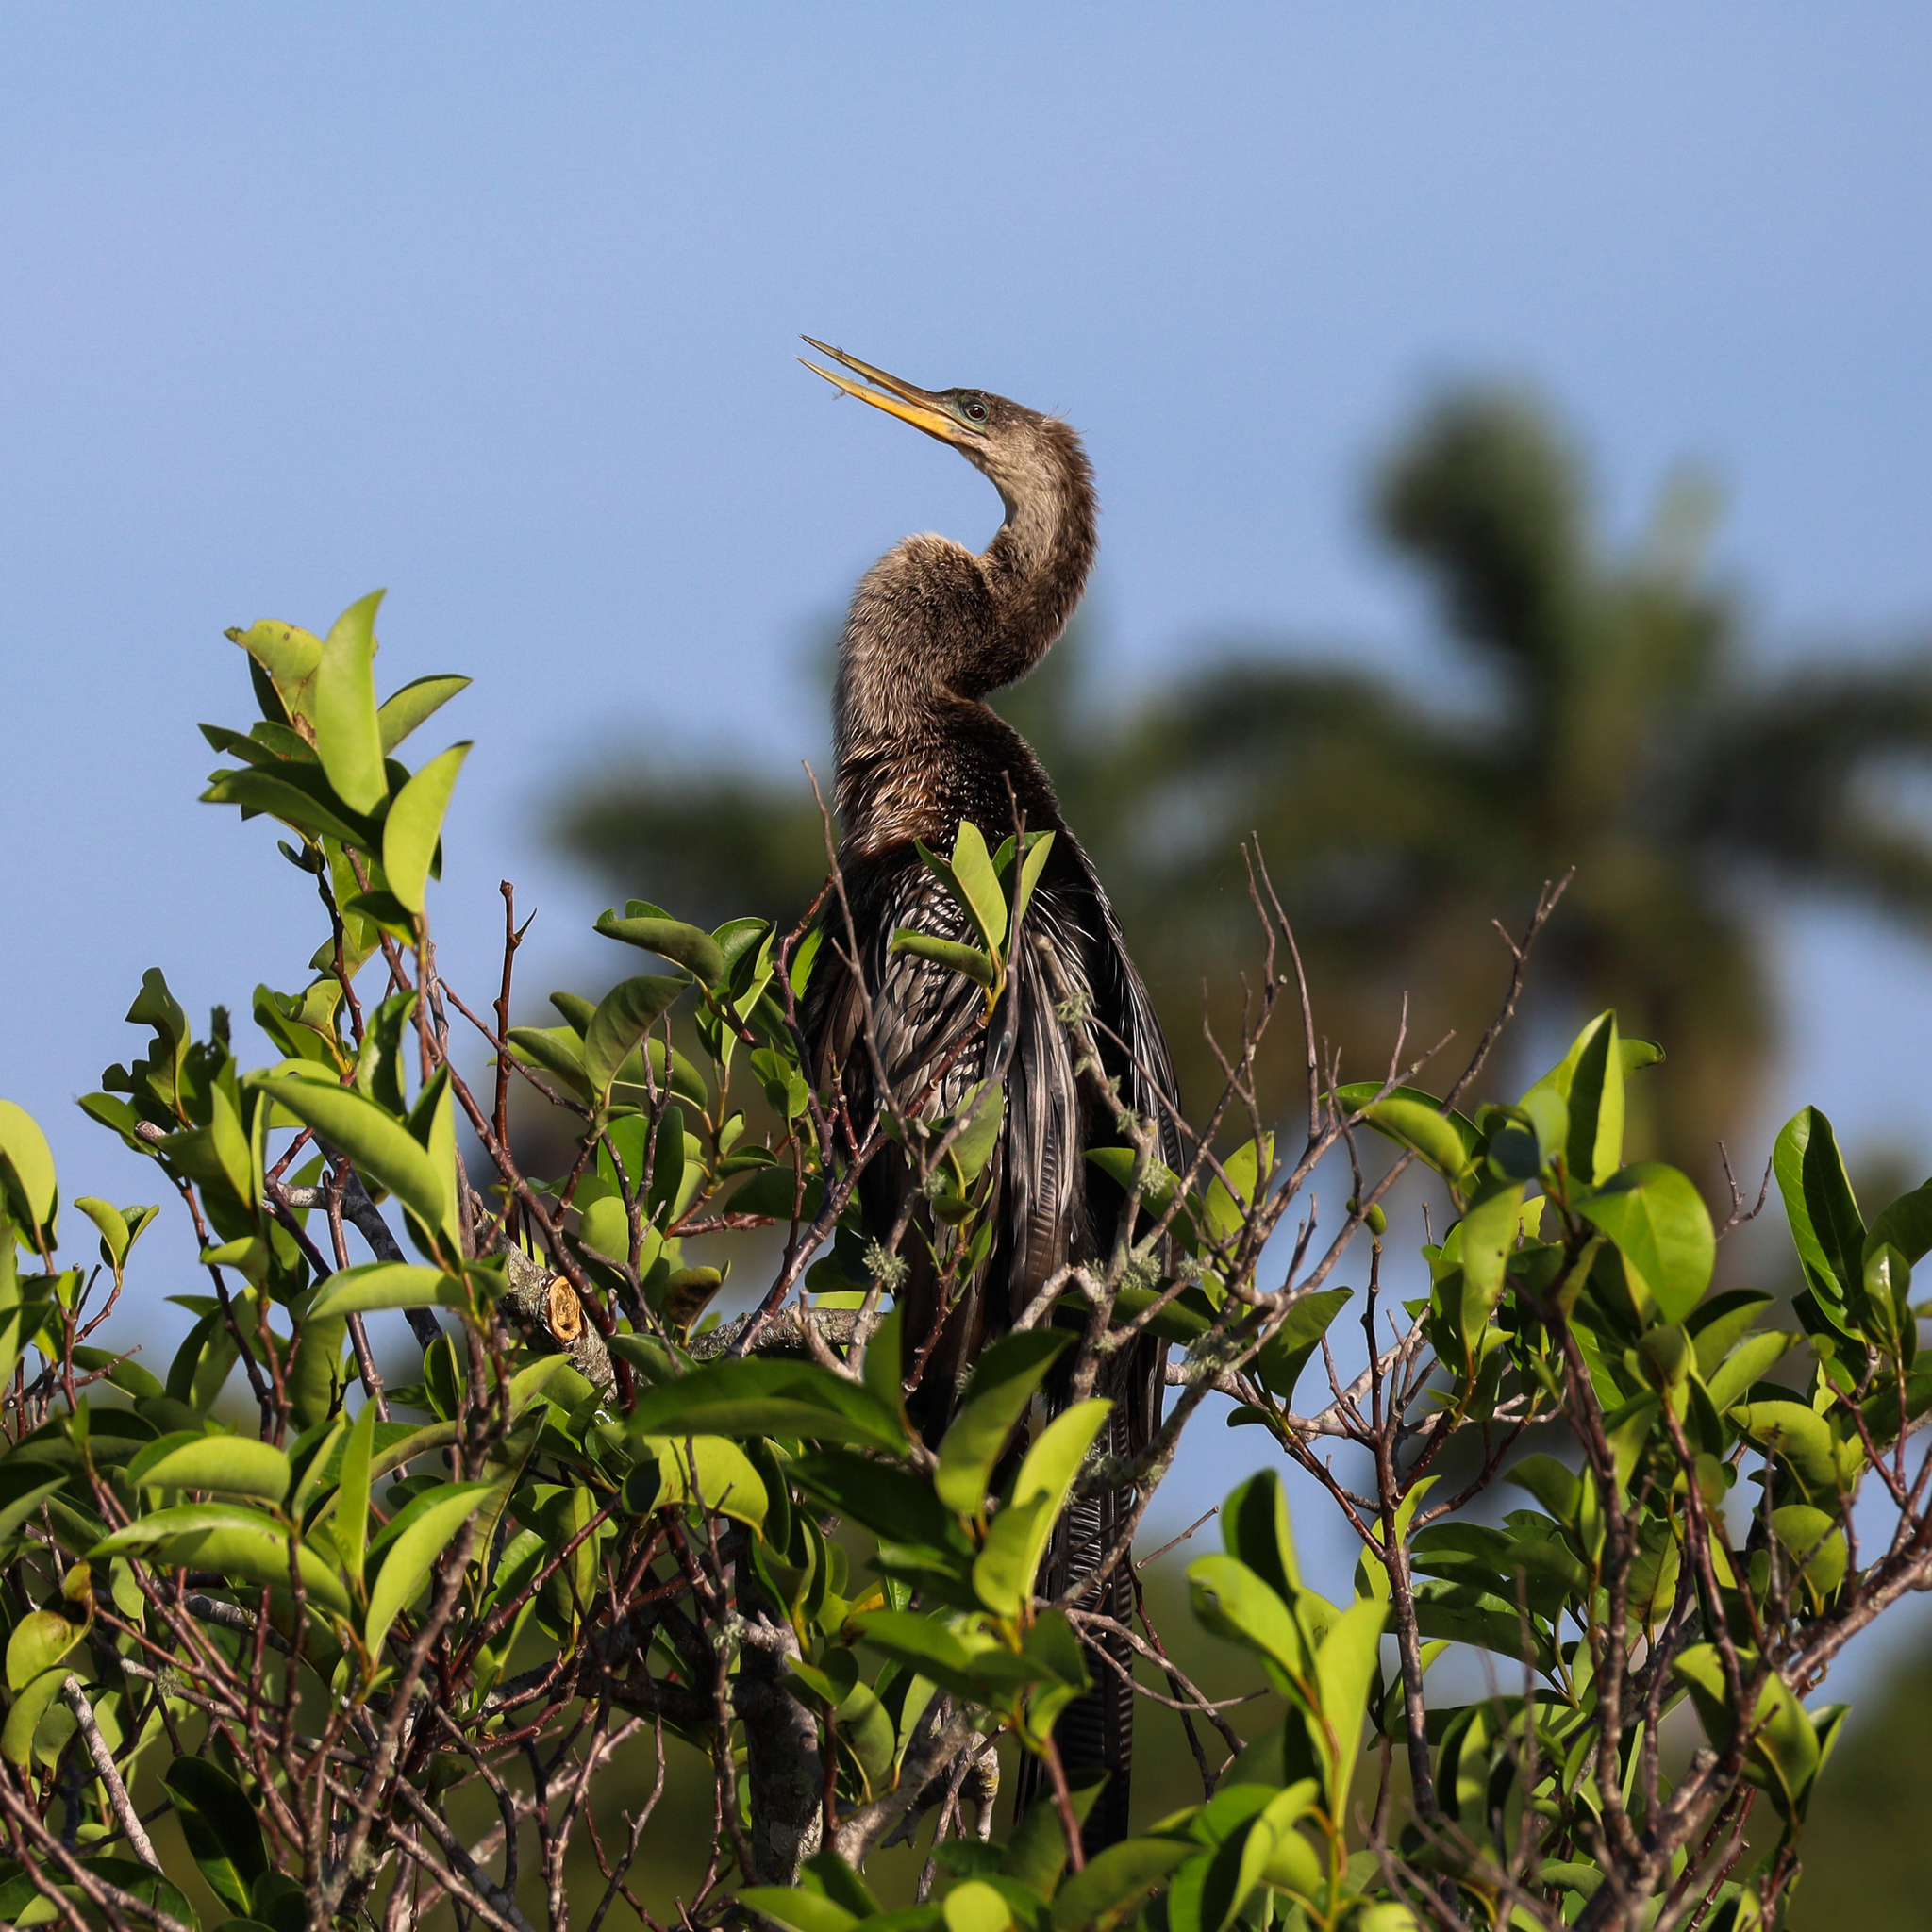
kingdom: Animalia
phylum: Chordata
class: Aves
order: Suliformes
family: Anhingidae
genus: Anhinga
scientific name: Anhinga anhinga
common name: Anhinga
